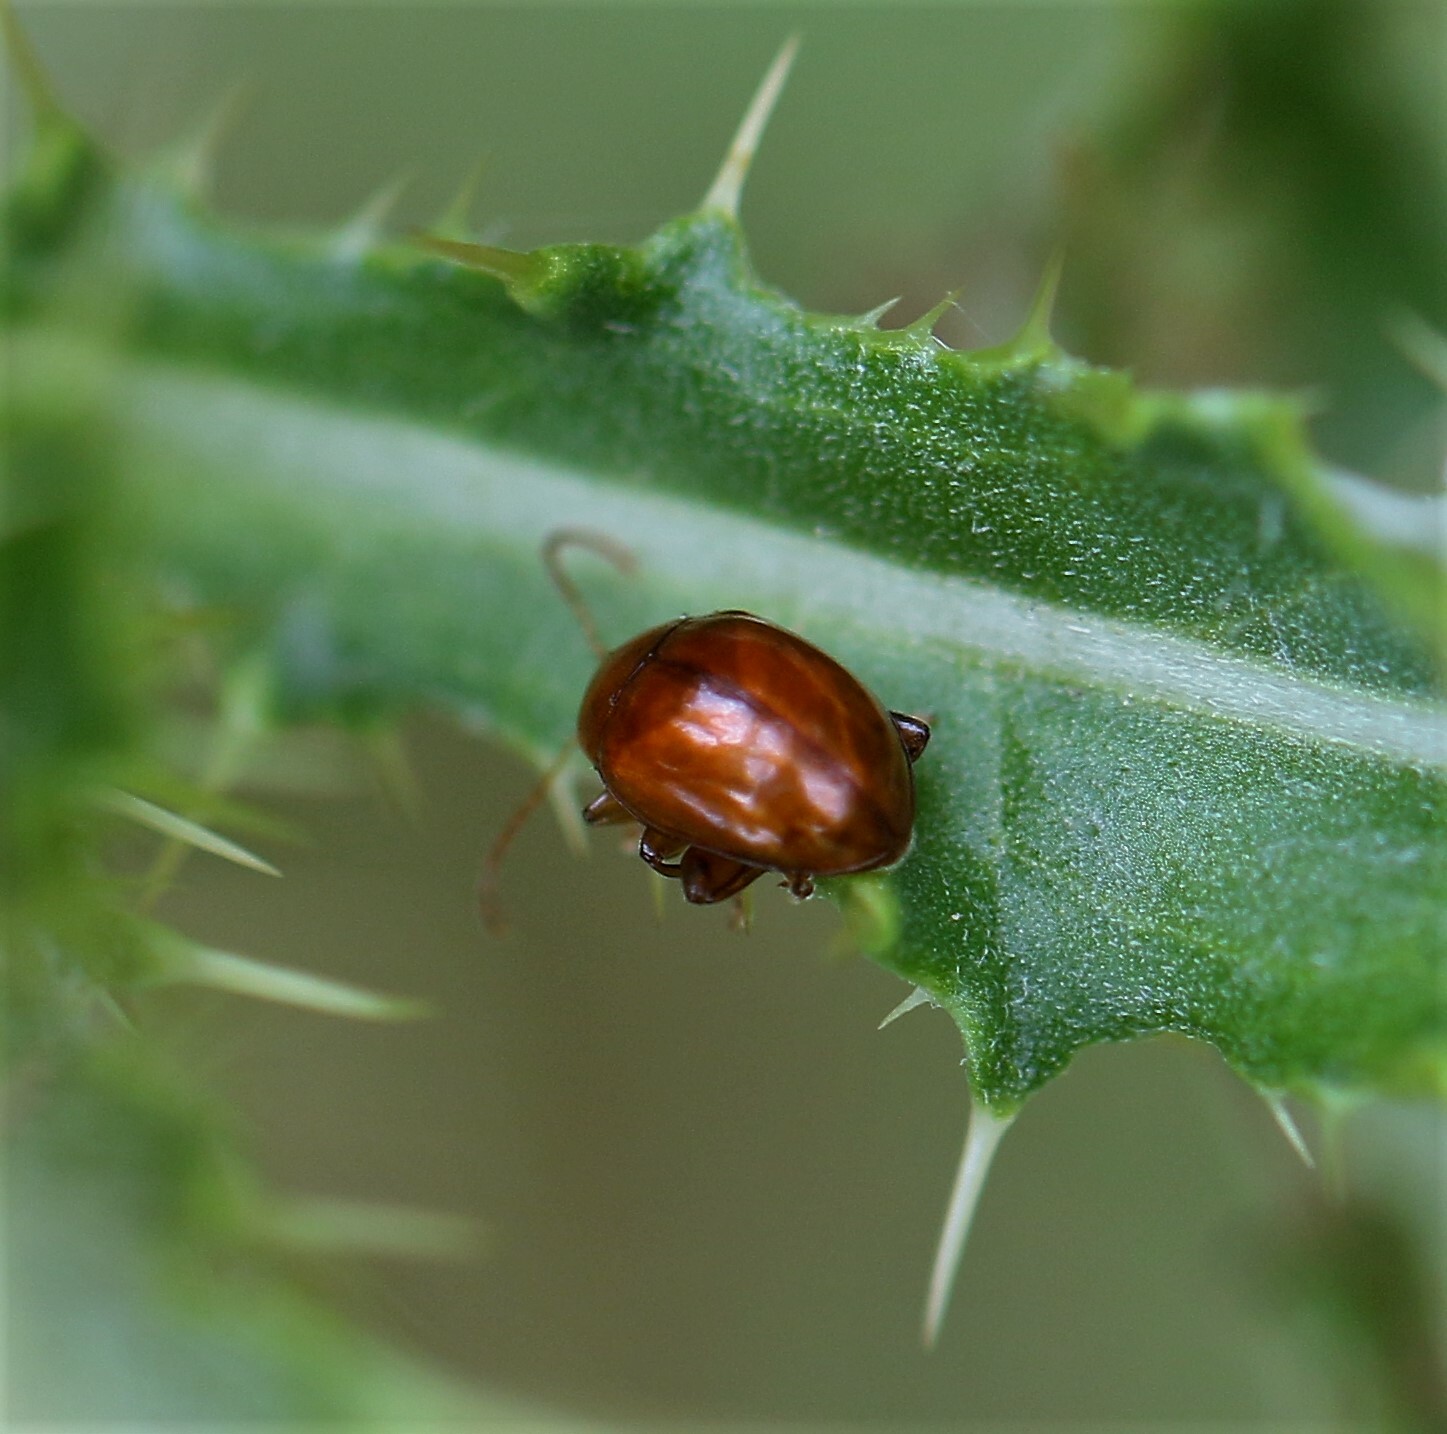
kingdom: Animalia
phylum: Arthropoda
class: Insecta
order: Coleoptera
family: Chrysomelidae
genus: Pistosia
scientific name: Pistosia testacea
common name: Leaf beetle
